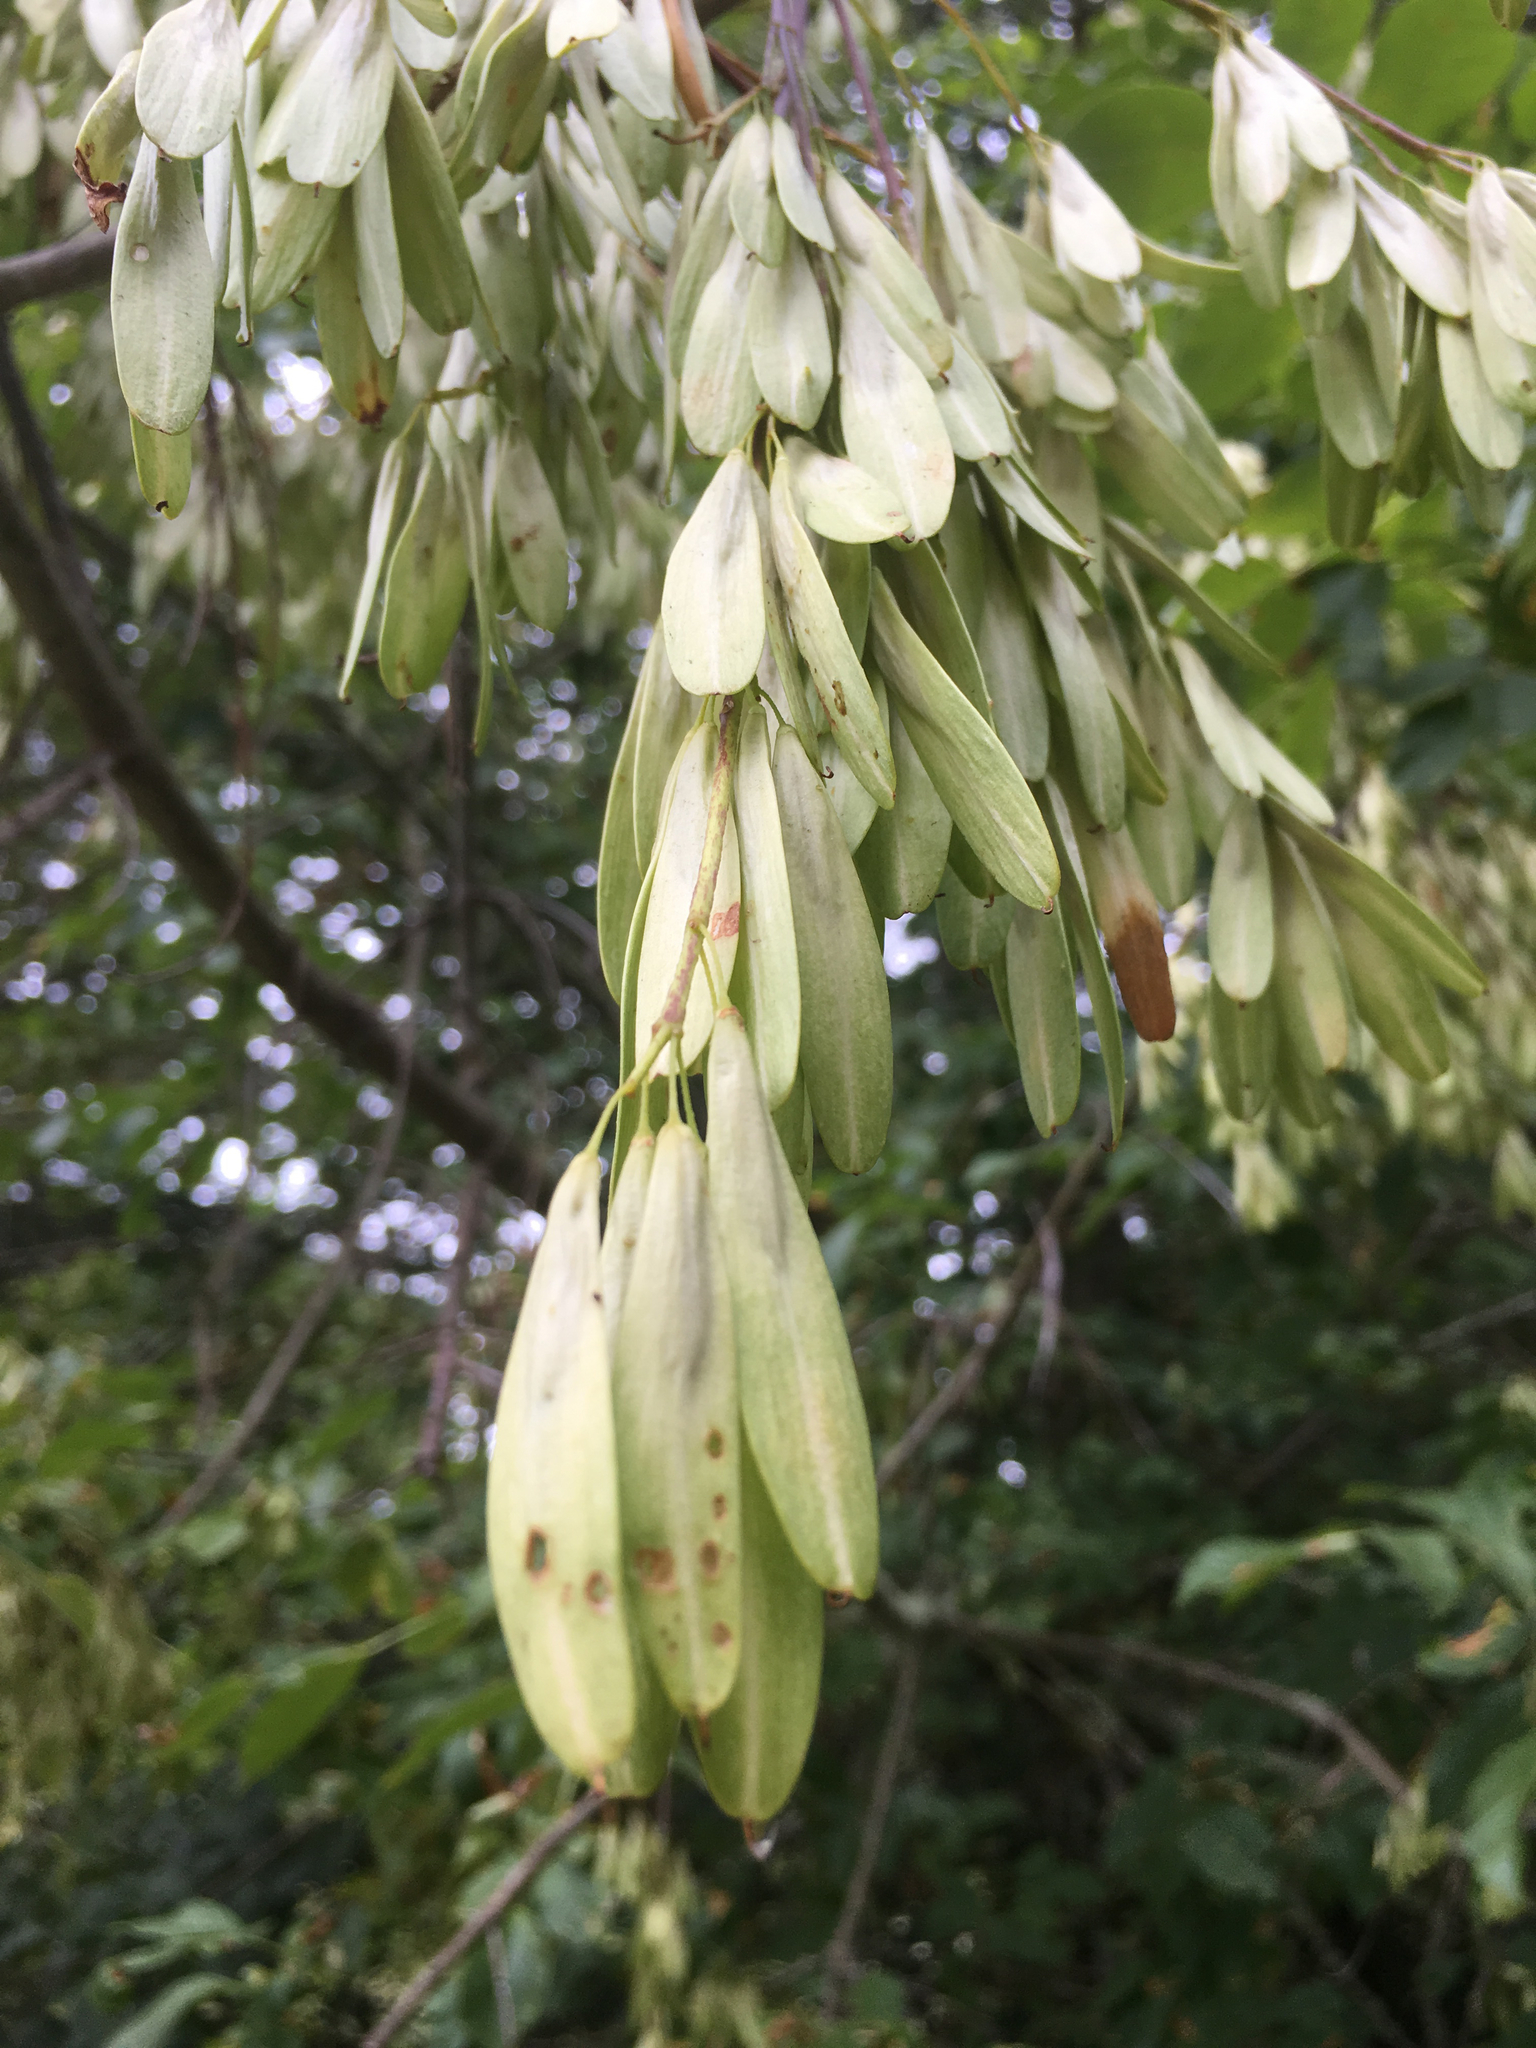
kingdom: Plantae
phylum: Tracheophyta
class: Magnoliopsida
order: Lamiales
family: Oleaceae
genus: Fraxinus
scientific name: Fraxinus latifolia
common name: Oregon ash
